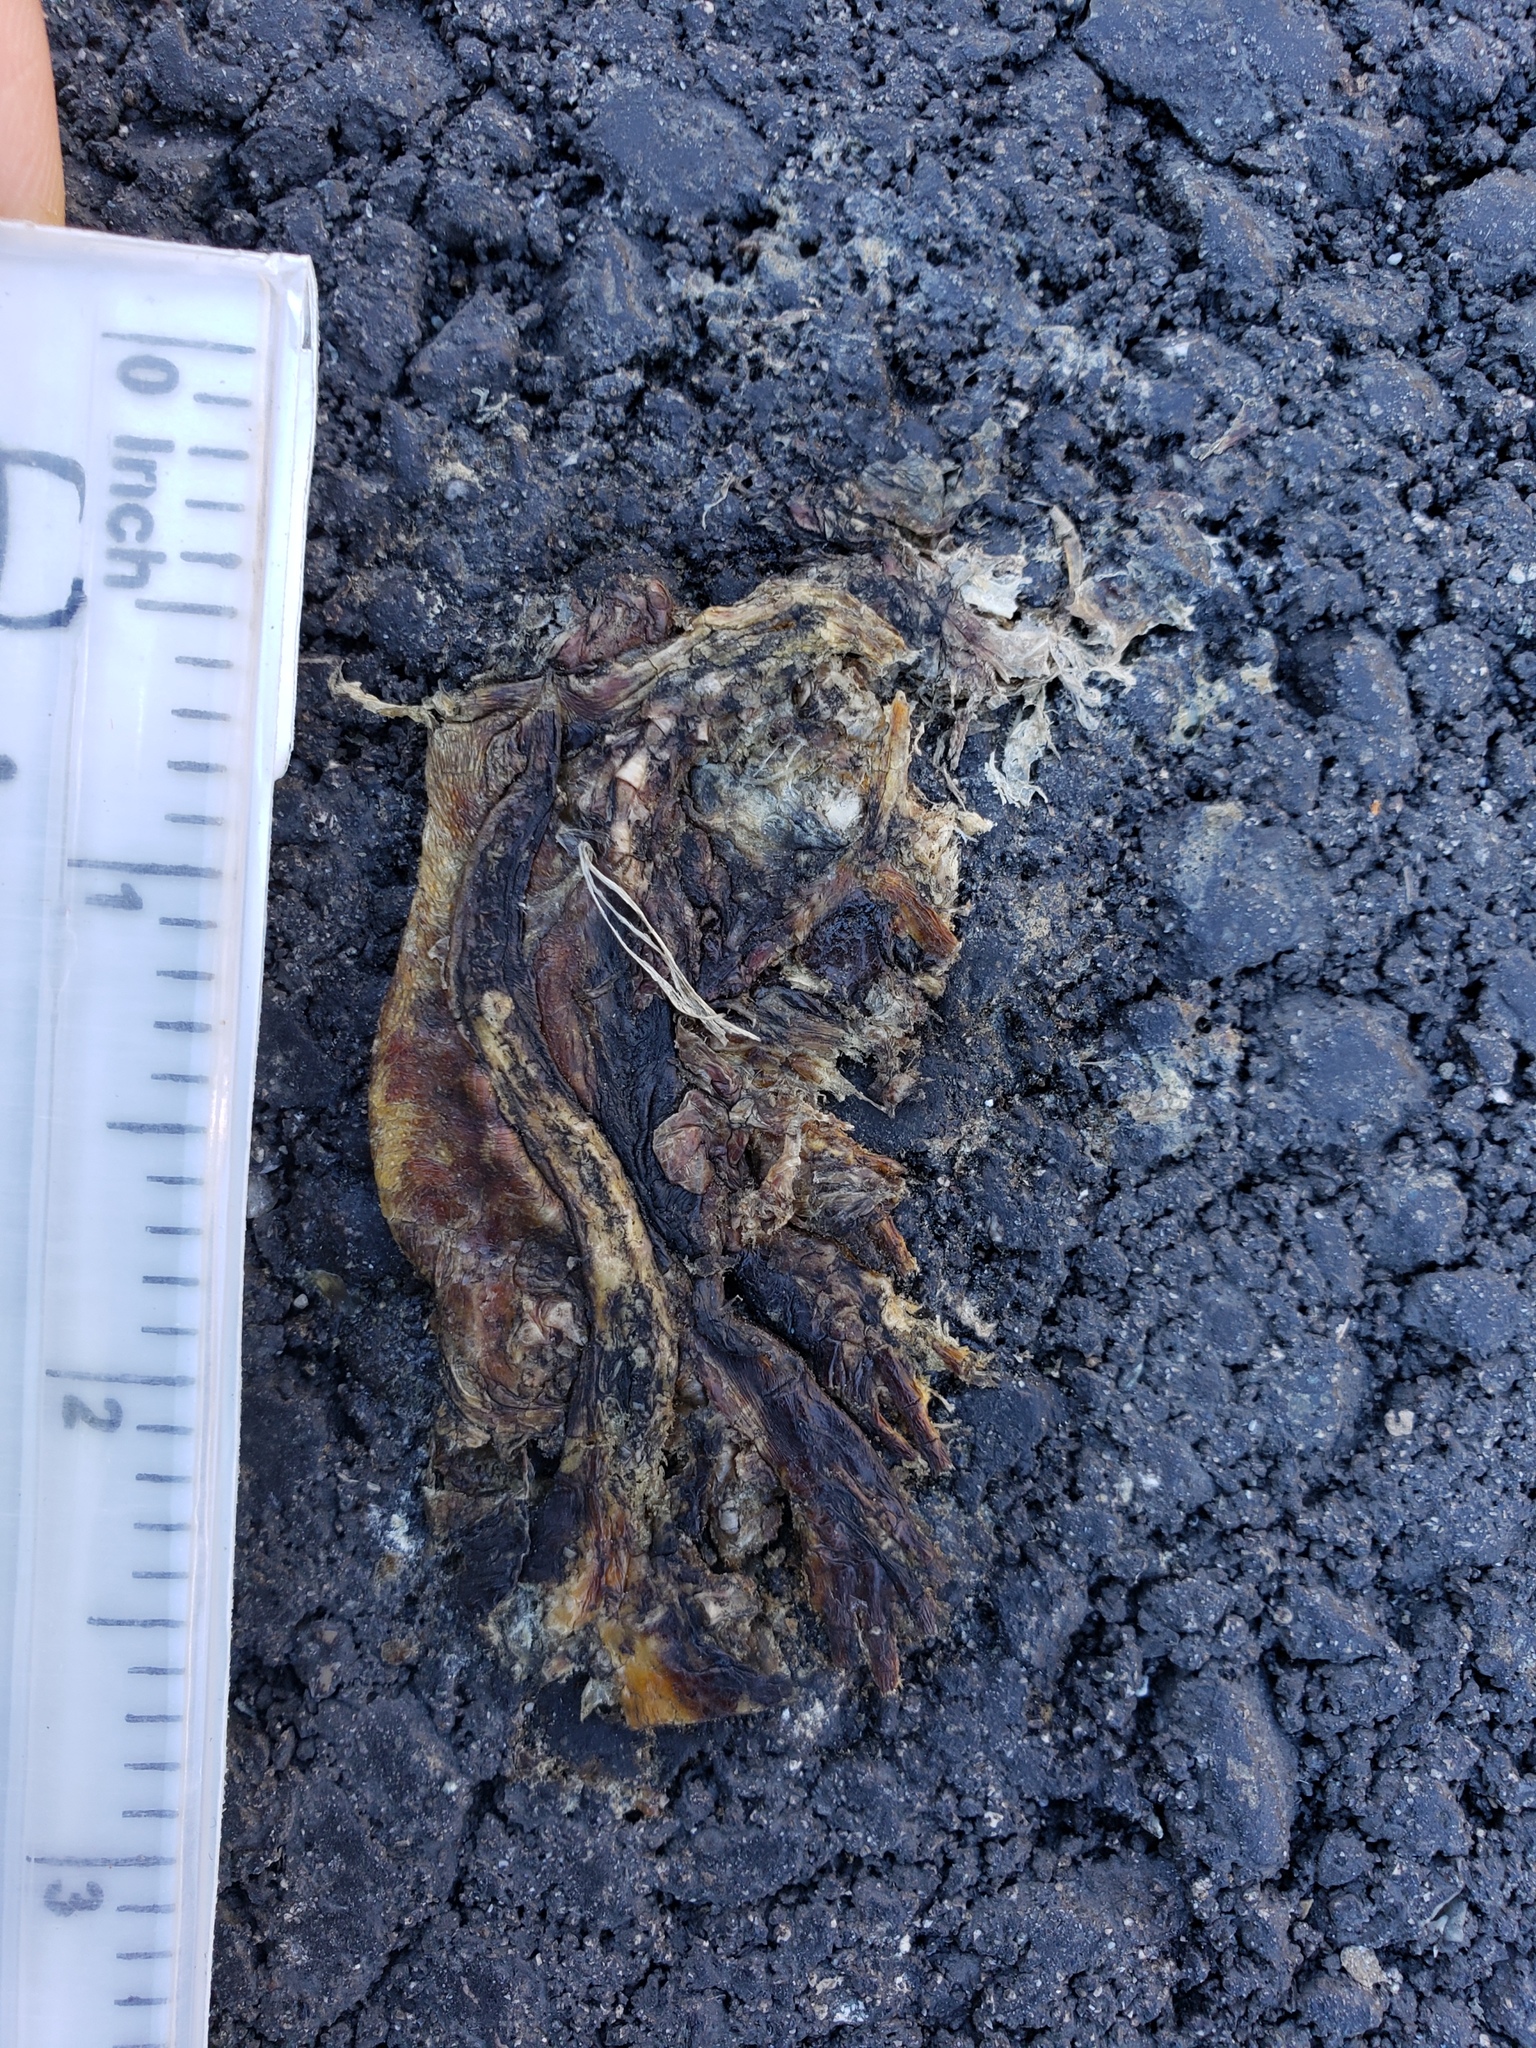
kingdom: Animalia
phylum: Chordata
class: Amphibia
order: Caudata
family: Salamandridae
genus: Taricha
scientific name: Taricha
